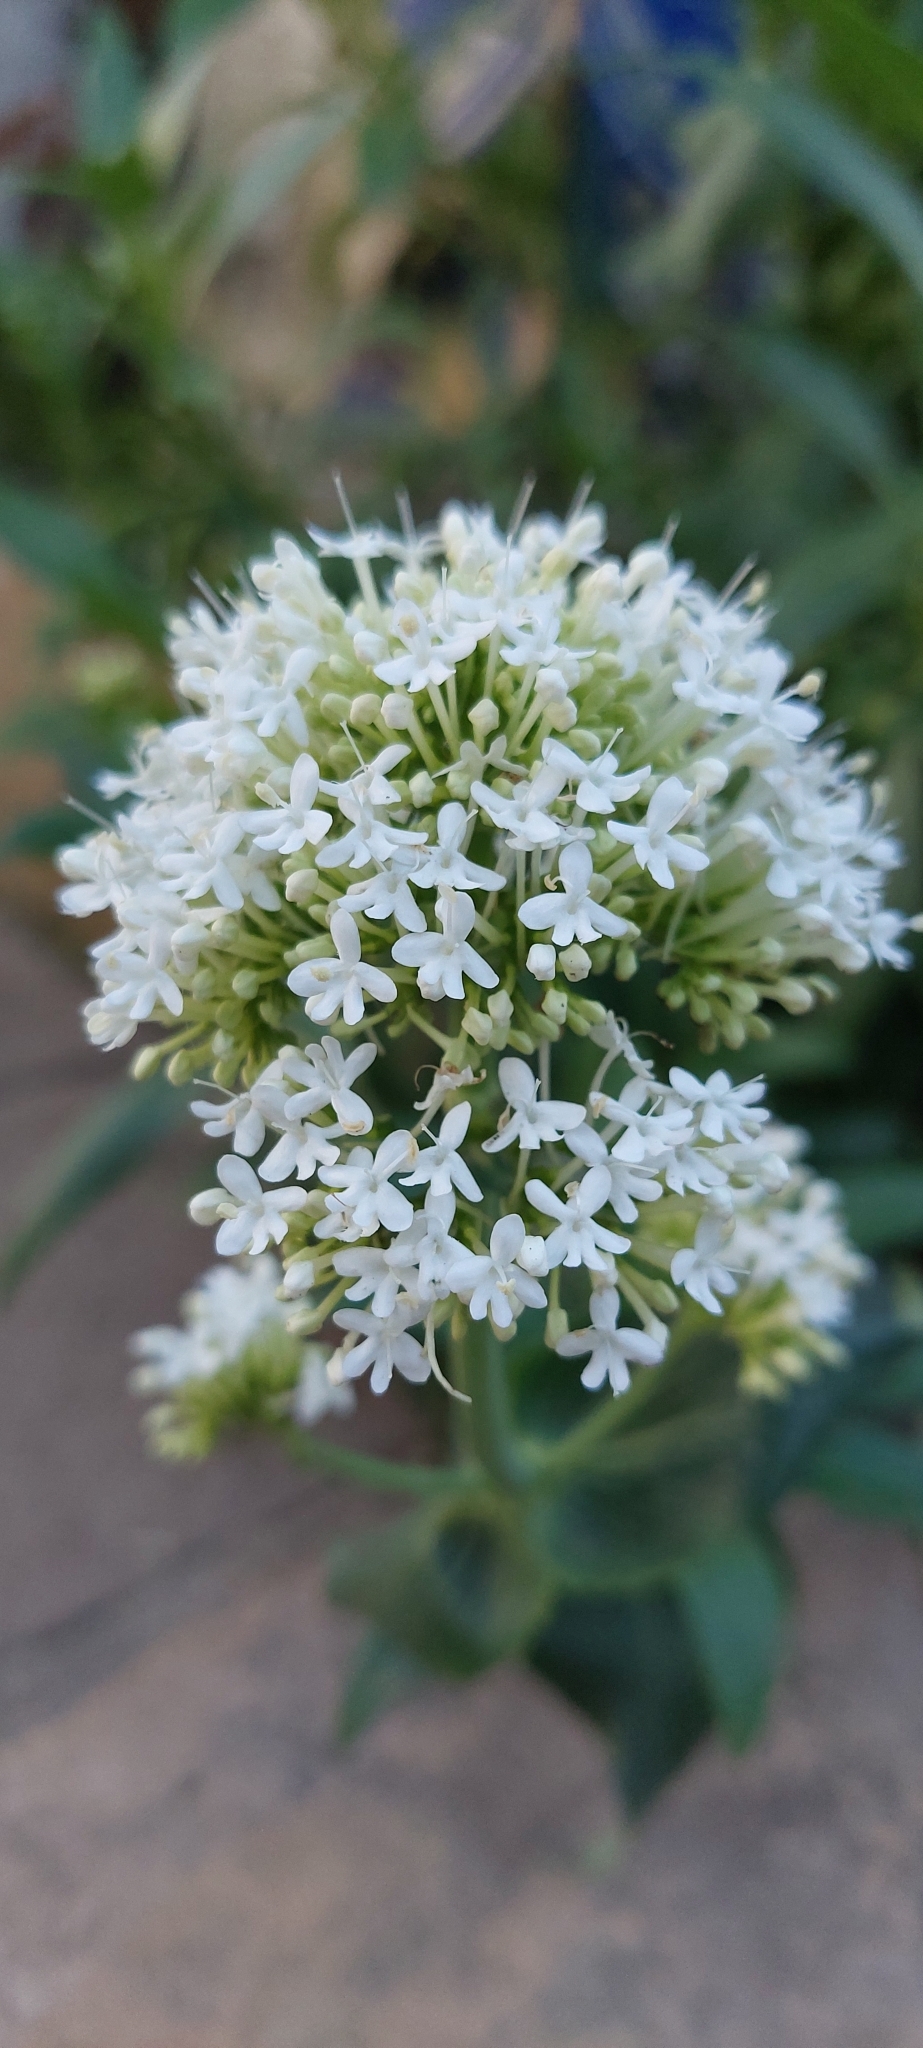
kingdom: Plantae
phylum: Tracheophyta
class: Magnoliopsida
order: Dipsacales
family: Caprifoliaceae
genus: Centranthus
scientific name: Centranthus ruber
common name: Red valerian
